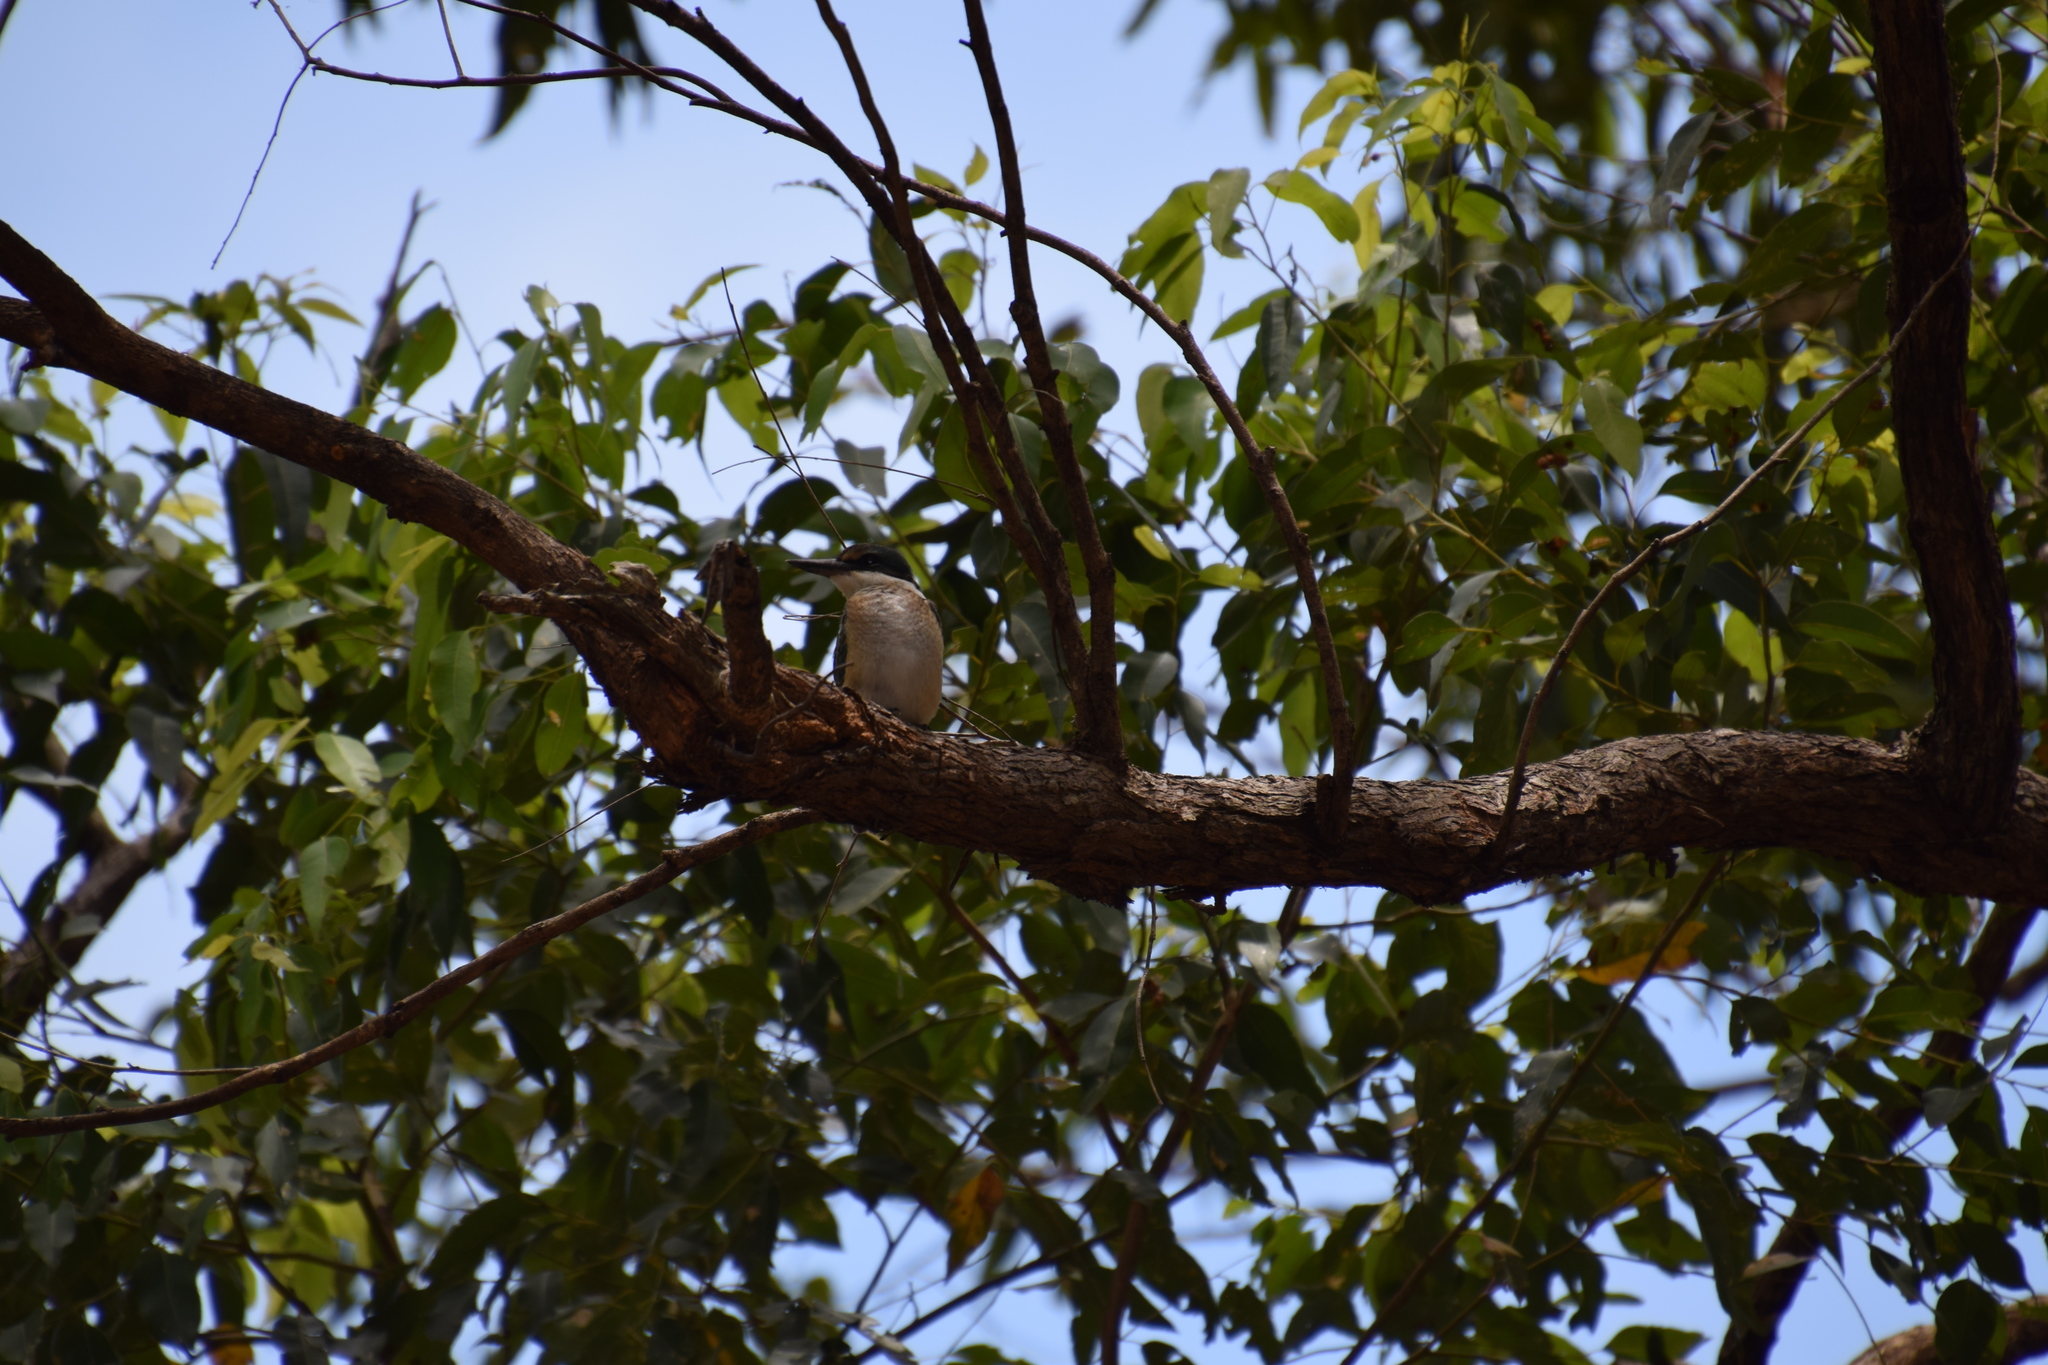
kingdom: Animalia
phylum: Chordata
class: Aves
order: Coraciiformes
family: Alcedinidae
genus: Todiramphus
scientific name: Todiramphus sanctus
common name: Sacred kingfisher
